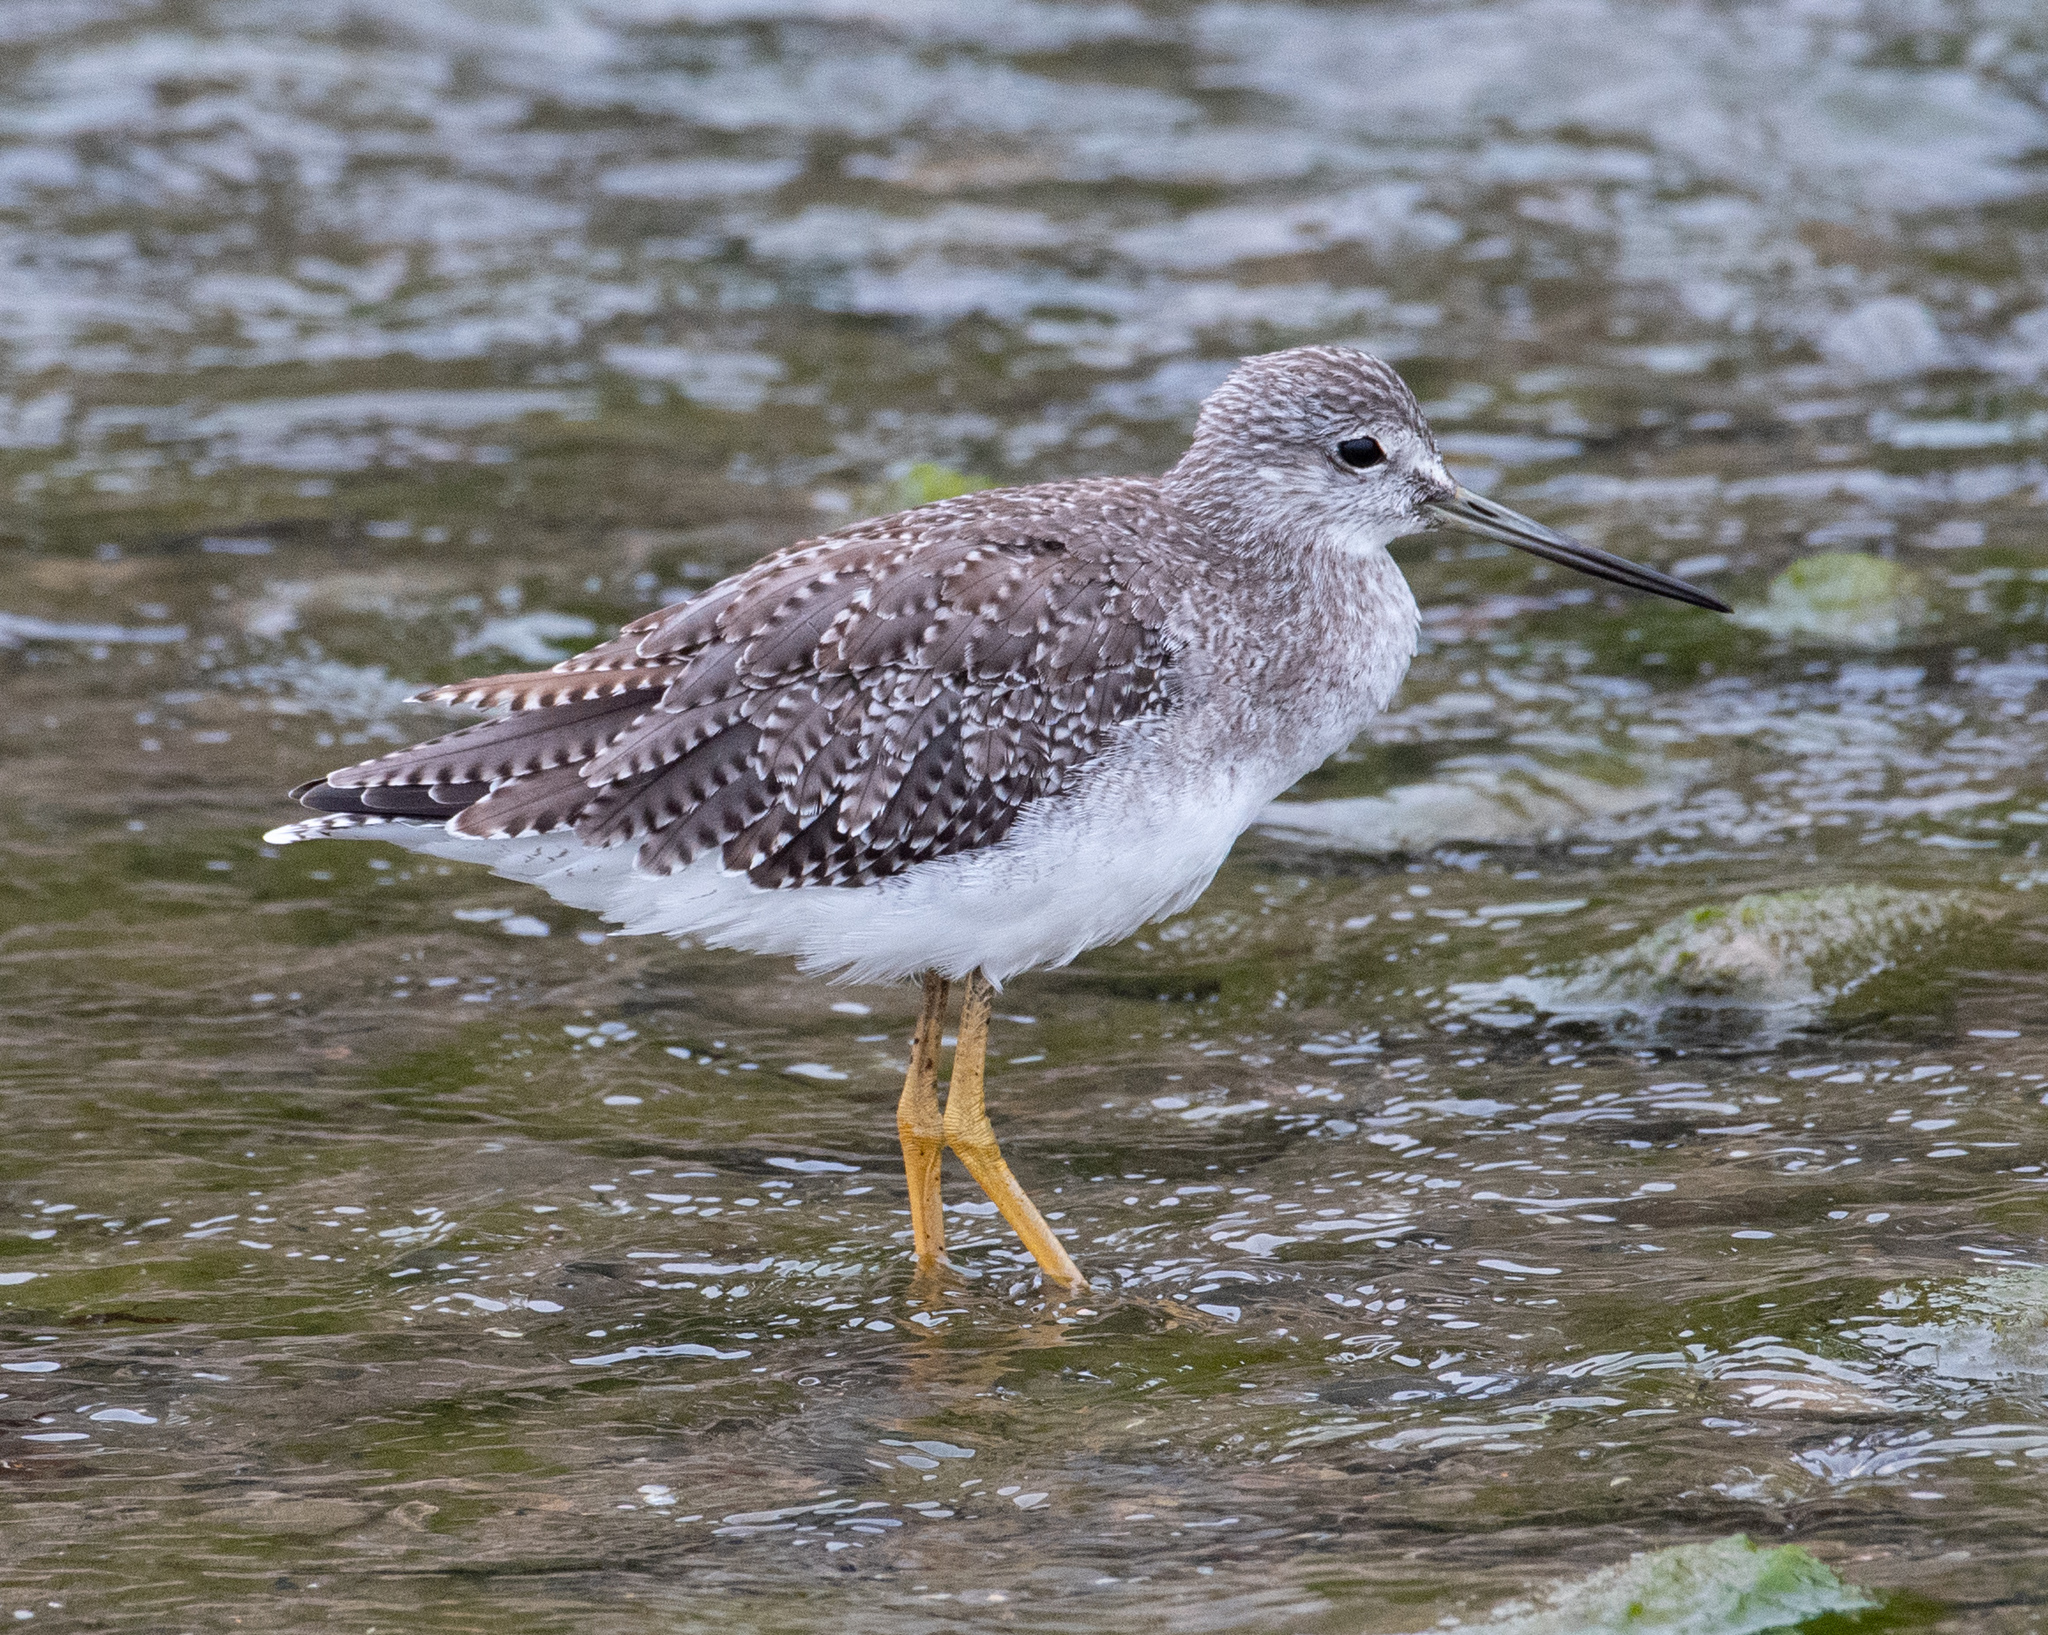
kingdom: Animalia
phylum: Chordata
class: Aves
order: Charadriiformes
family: Scolopacidae
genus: Tringa
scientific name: Tringa melanoleuca
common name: Greater yellowlegs
